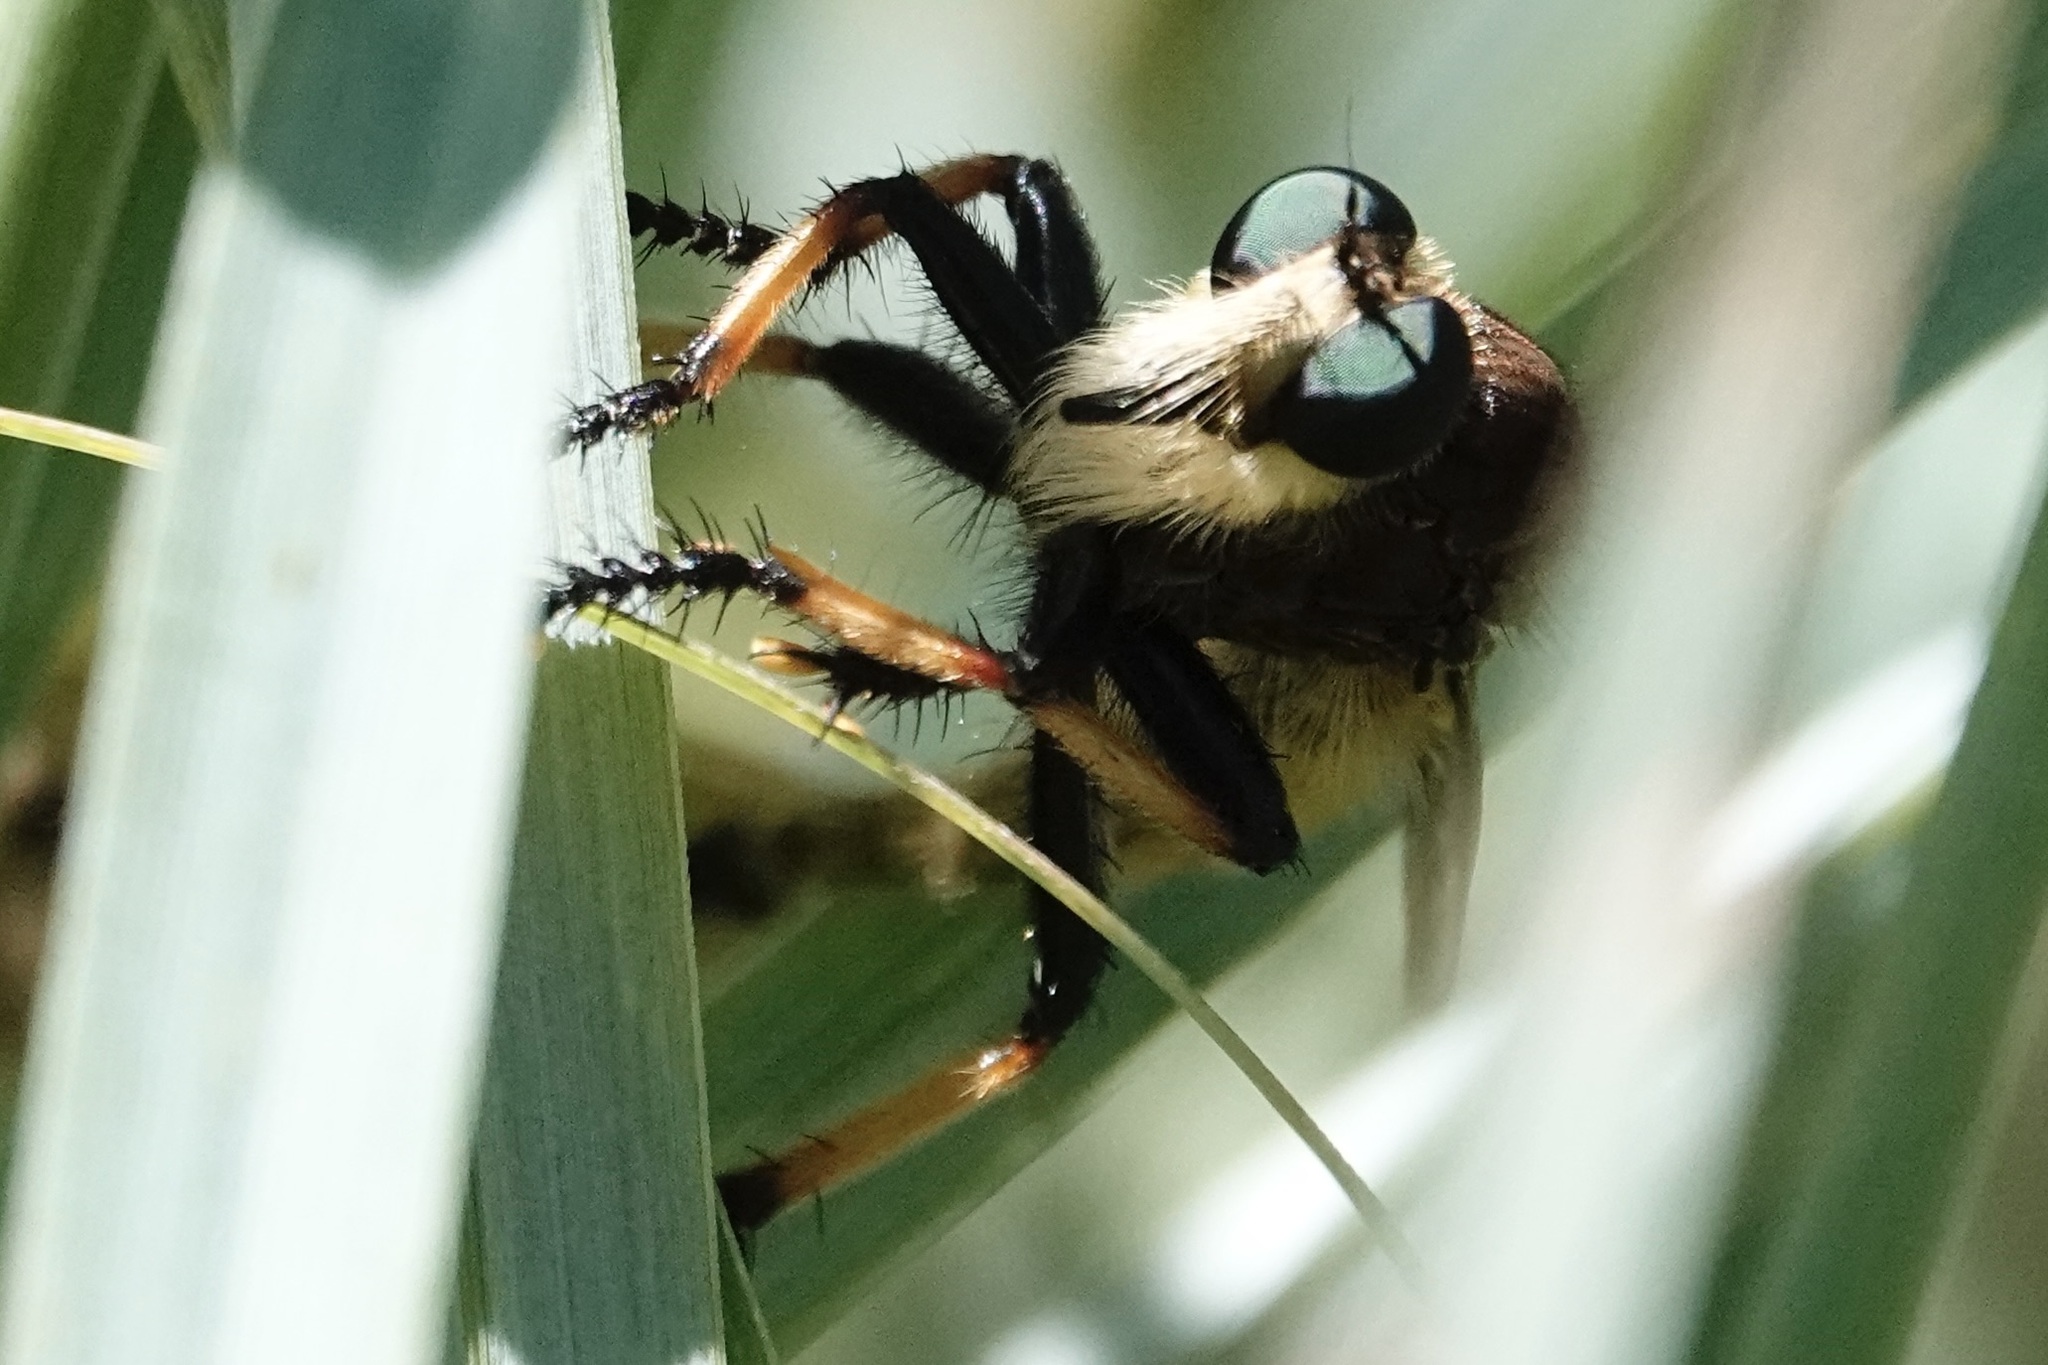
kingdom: Animalia
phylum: Arthropoda
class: Insecta
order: Diptera
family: Asilidae
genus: Promachus
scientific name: Promachus rufipes
